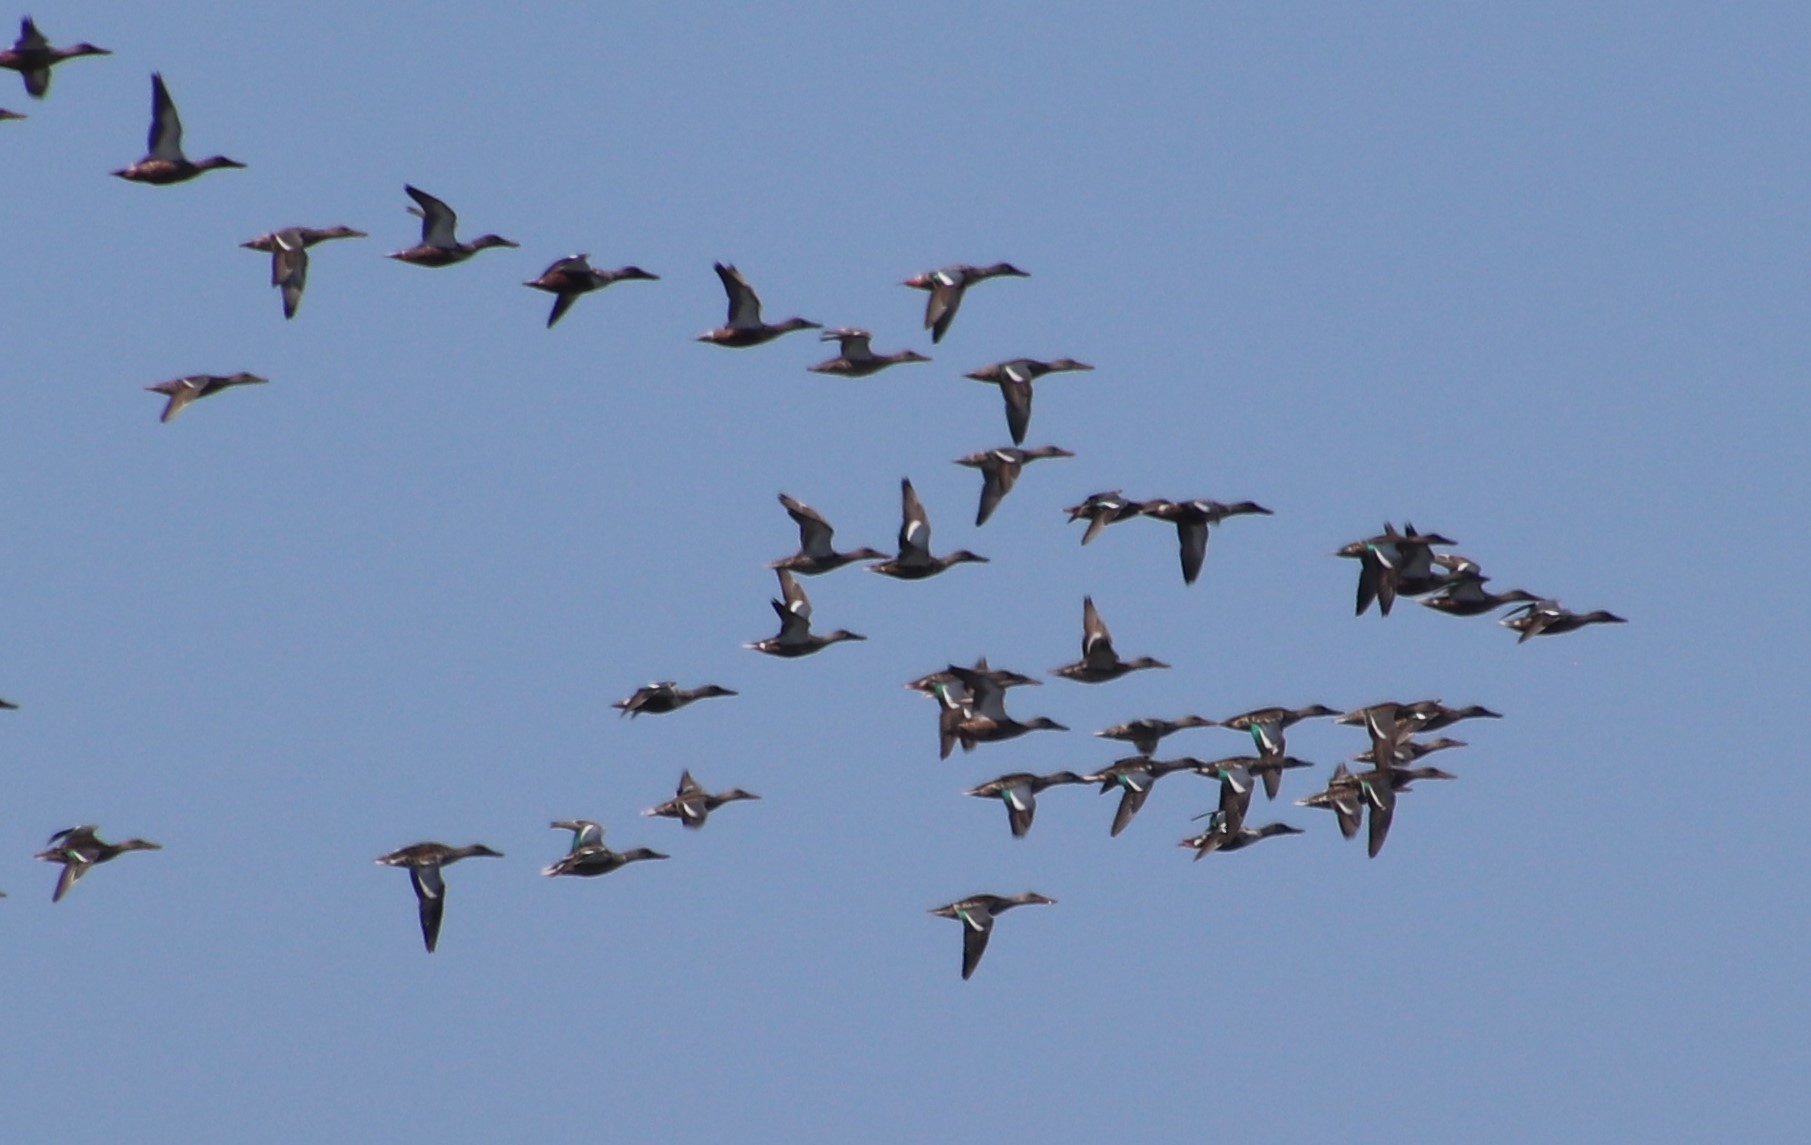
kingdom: Animalia
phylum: Chordata
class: Aves
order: Anseriformes
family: Anatidae
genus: Spatula
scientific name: Spatula clypeata
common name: Northern shoveler
